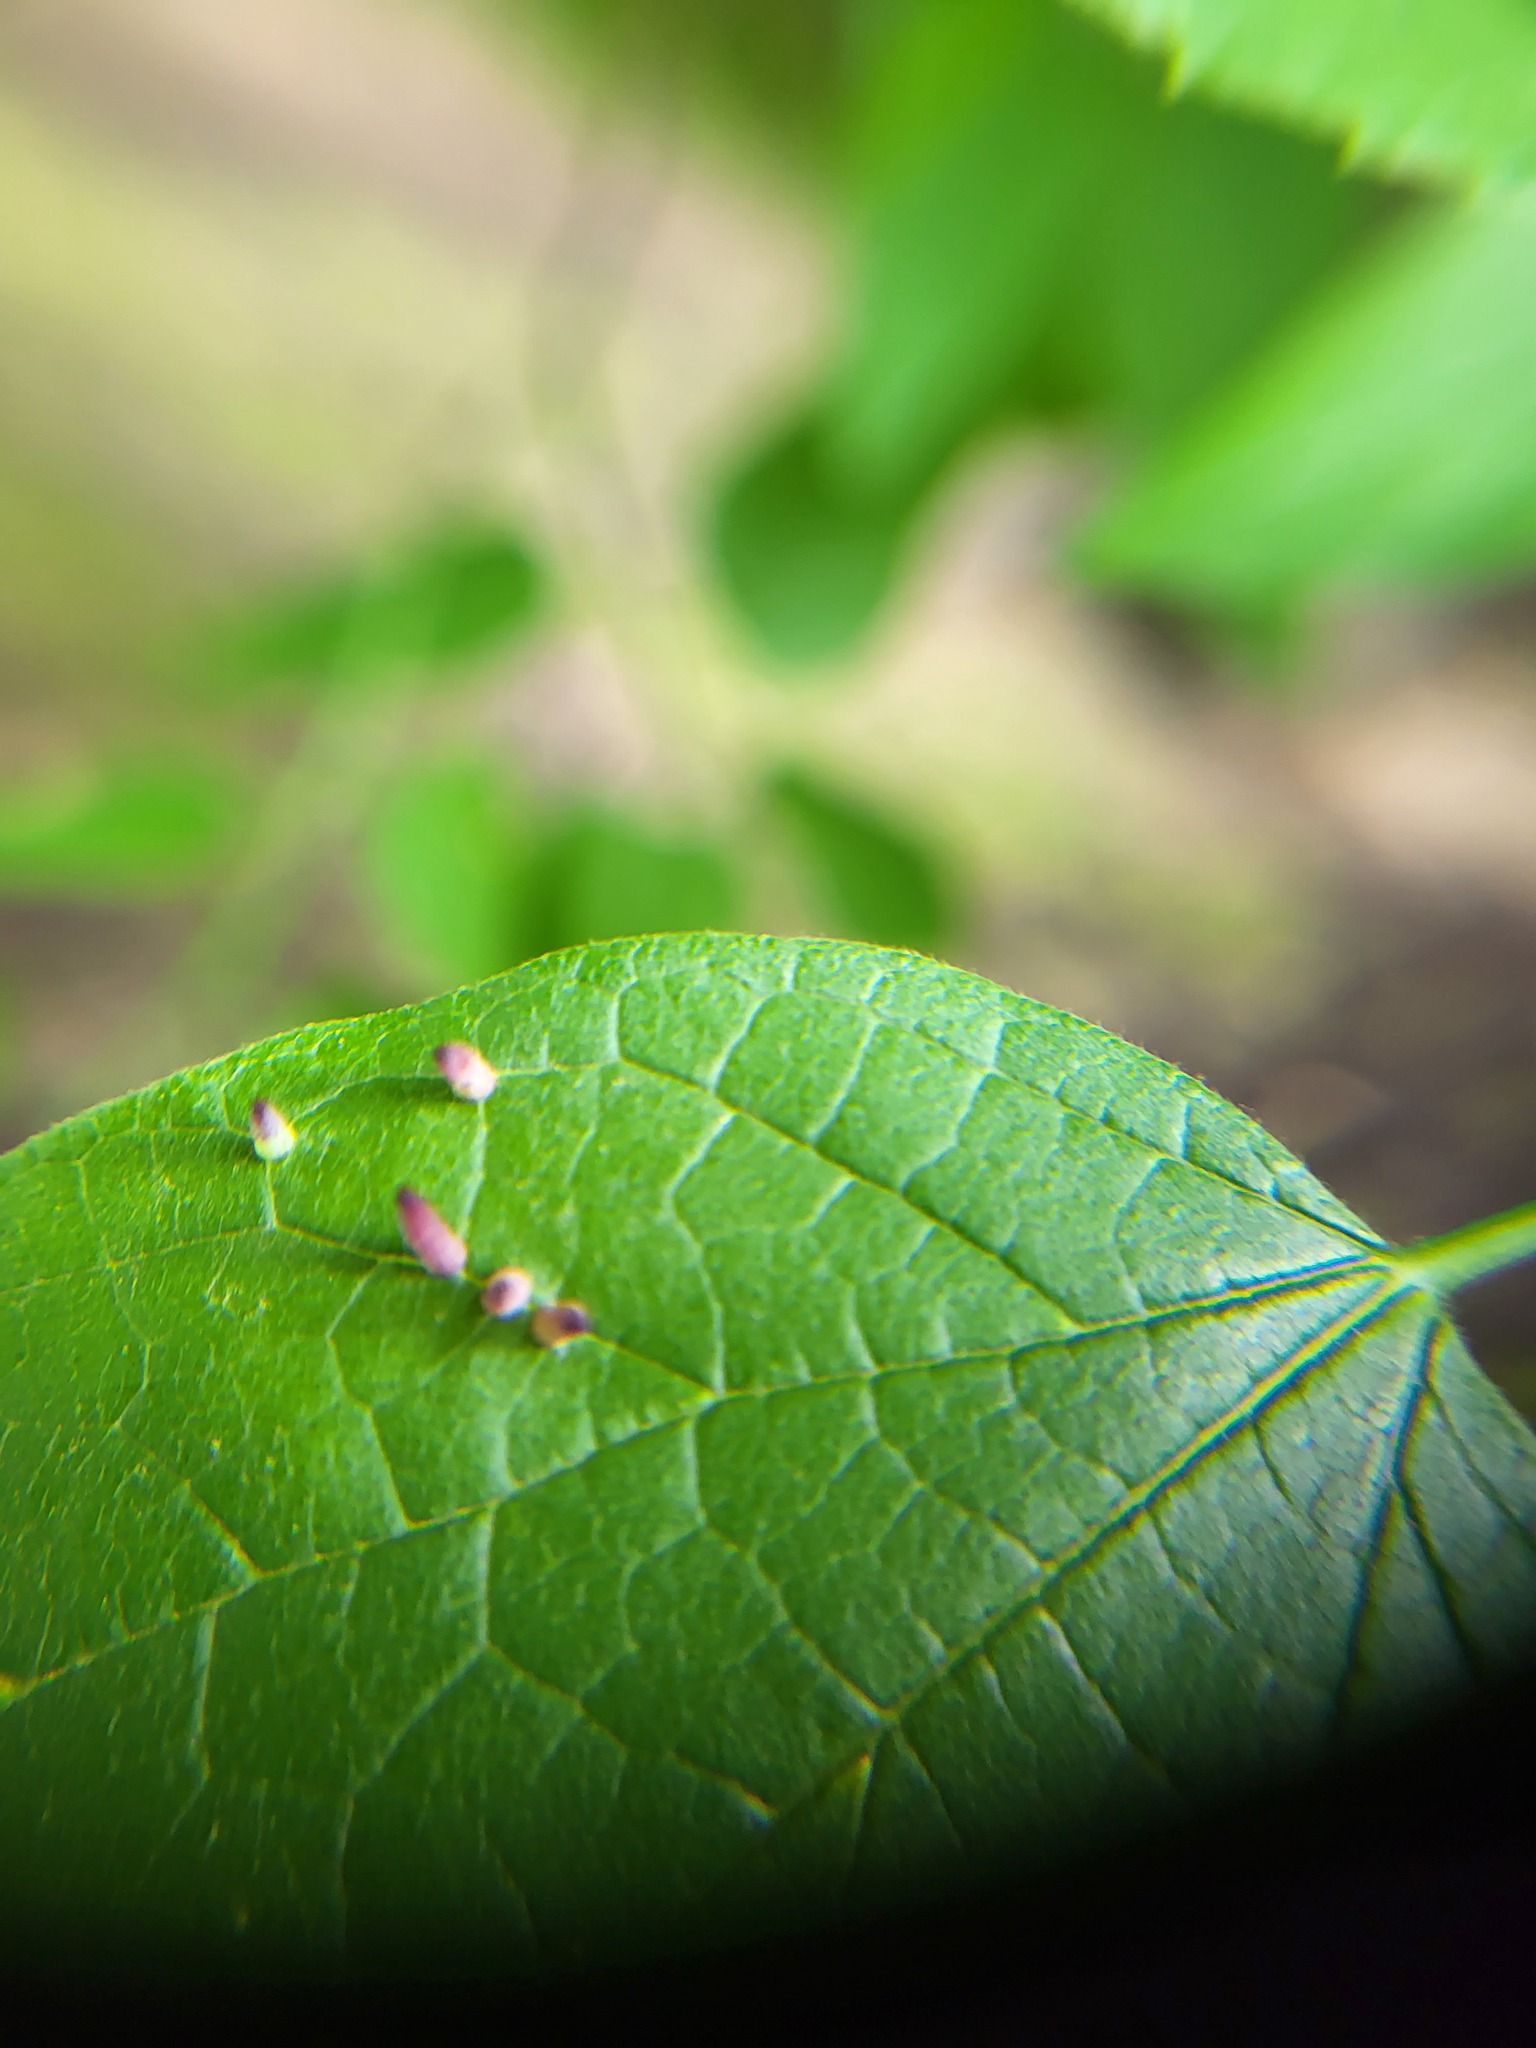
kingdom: Animalia
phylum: Arthropoda
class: Insecta
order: Diptera
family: Cecidomyiidae
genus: Celticecis
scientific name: Celticecis
